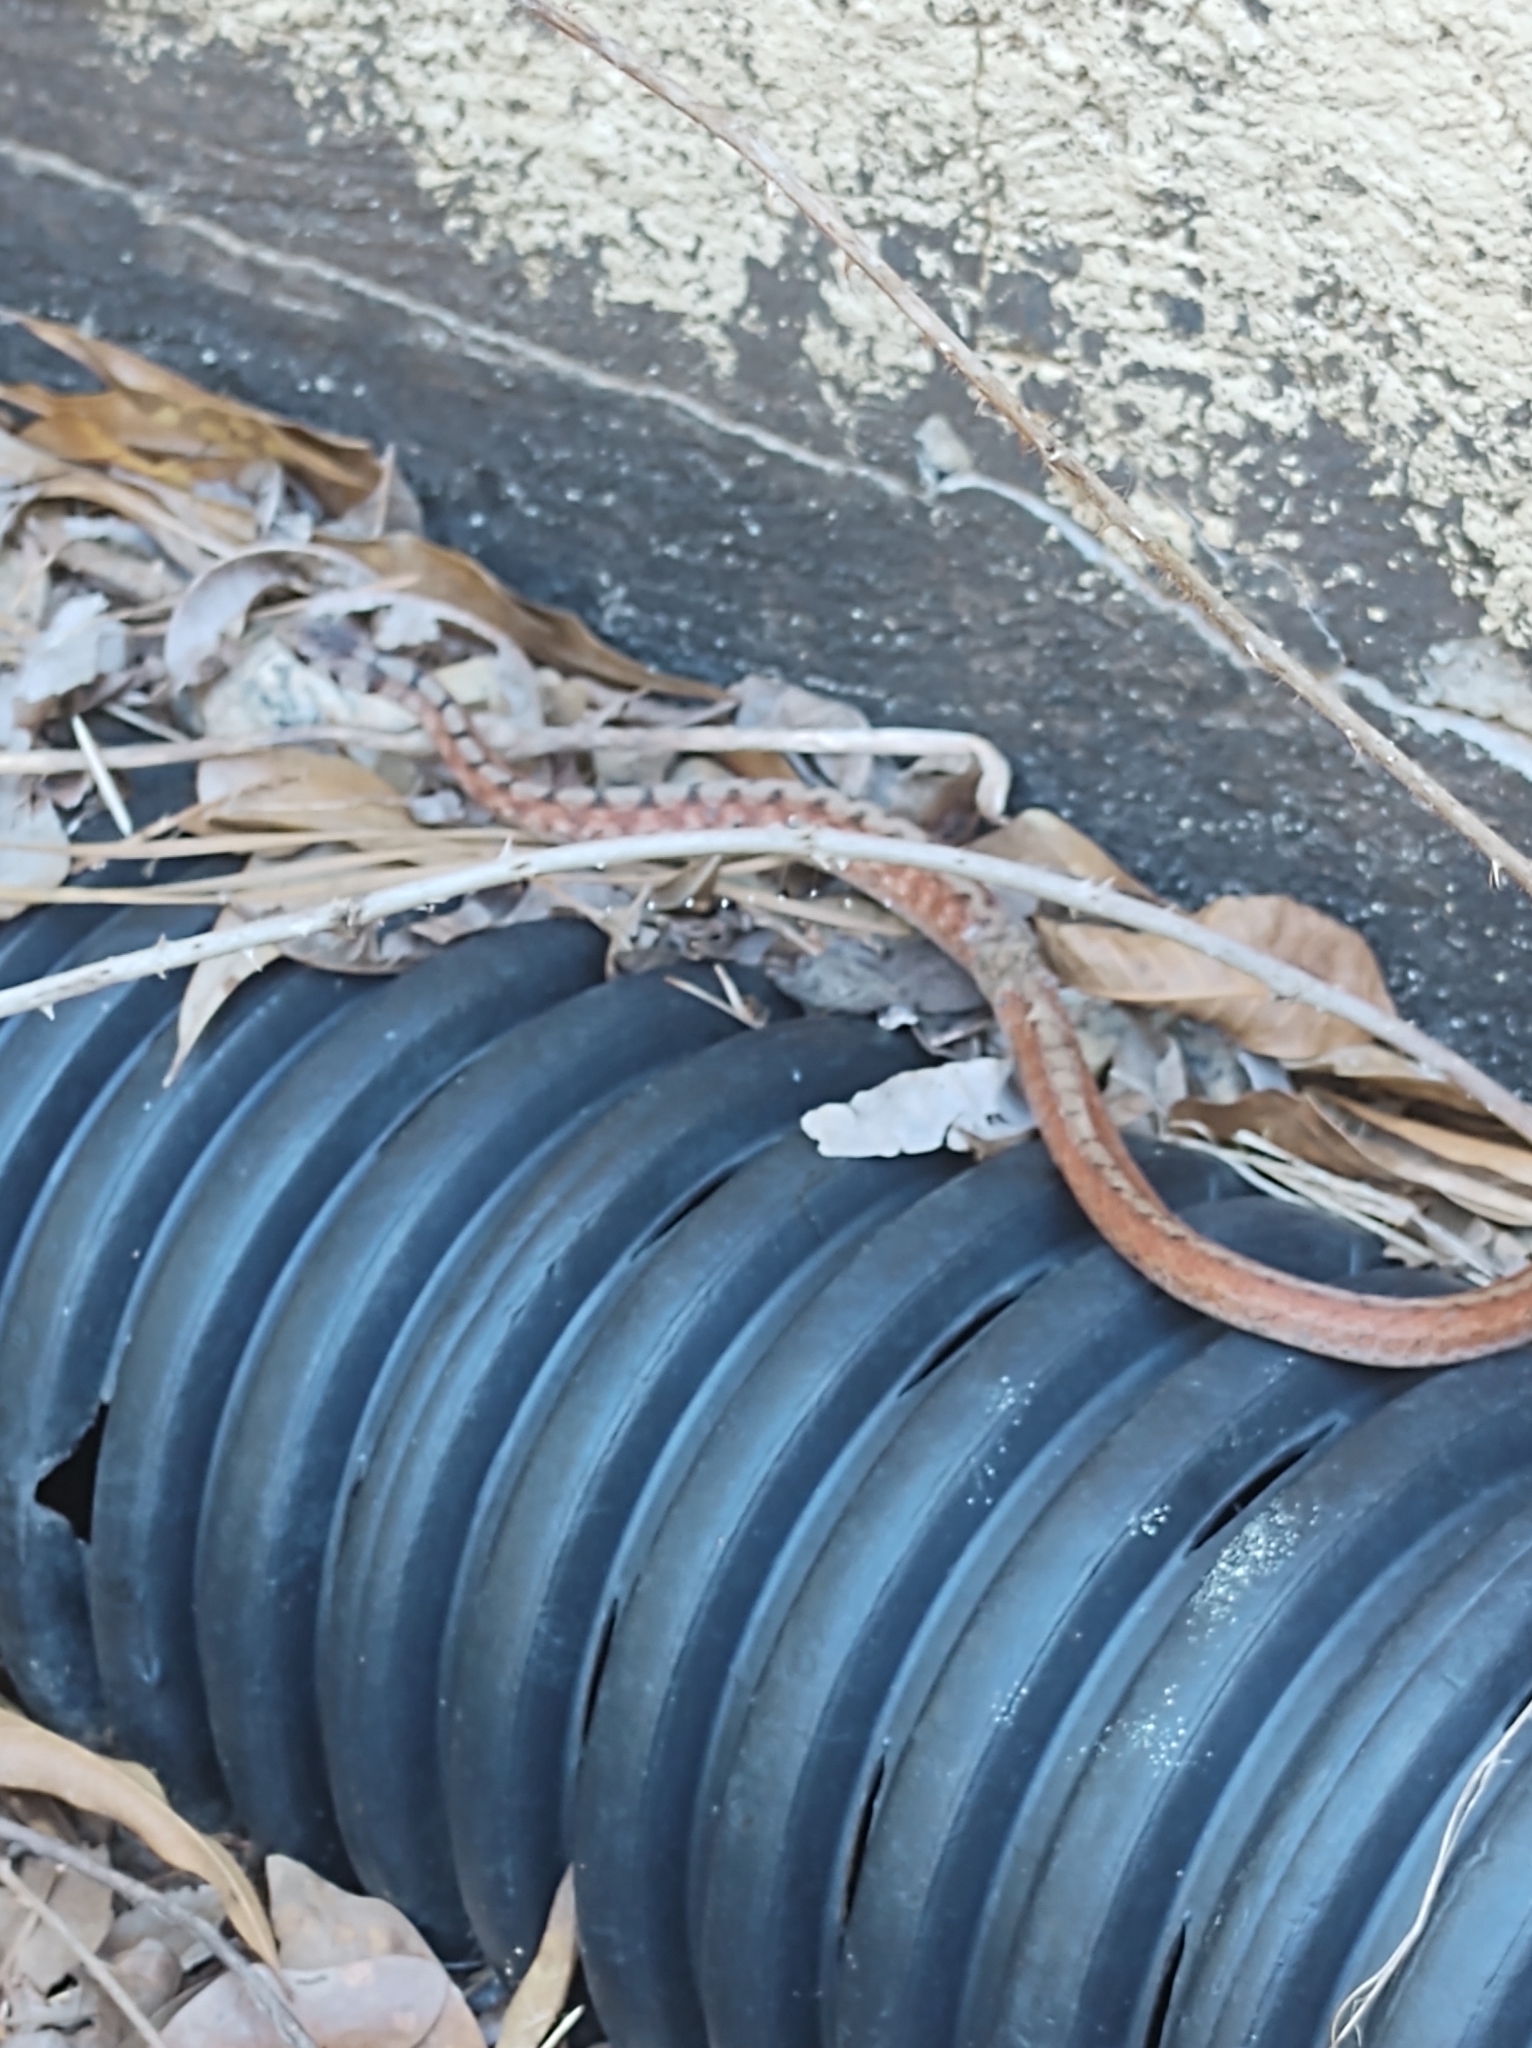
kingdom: Animalia
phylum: Chordata
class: Squamata
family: Colubridae
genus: Storeria
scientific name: Storeria dekayi
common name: (dekay’s) brown snake
